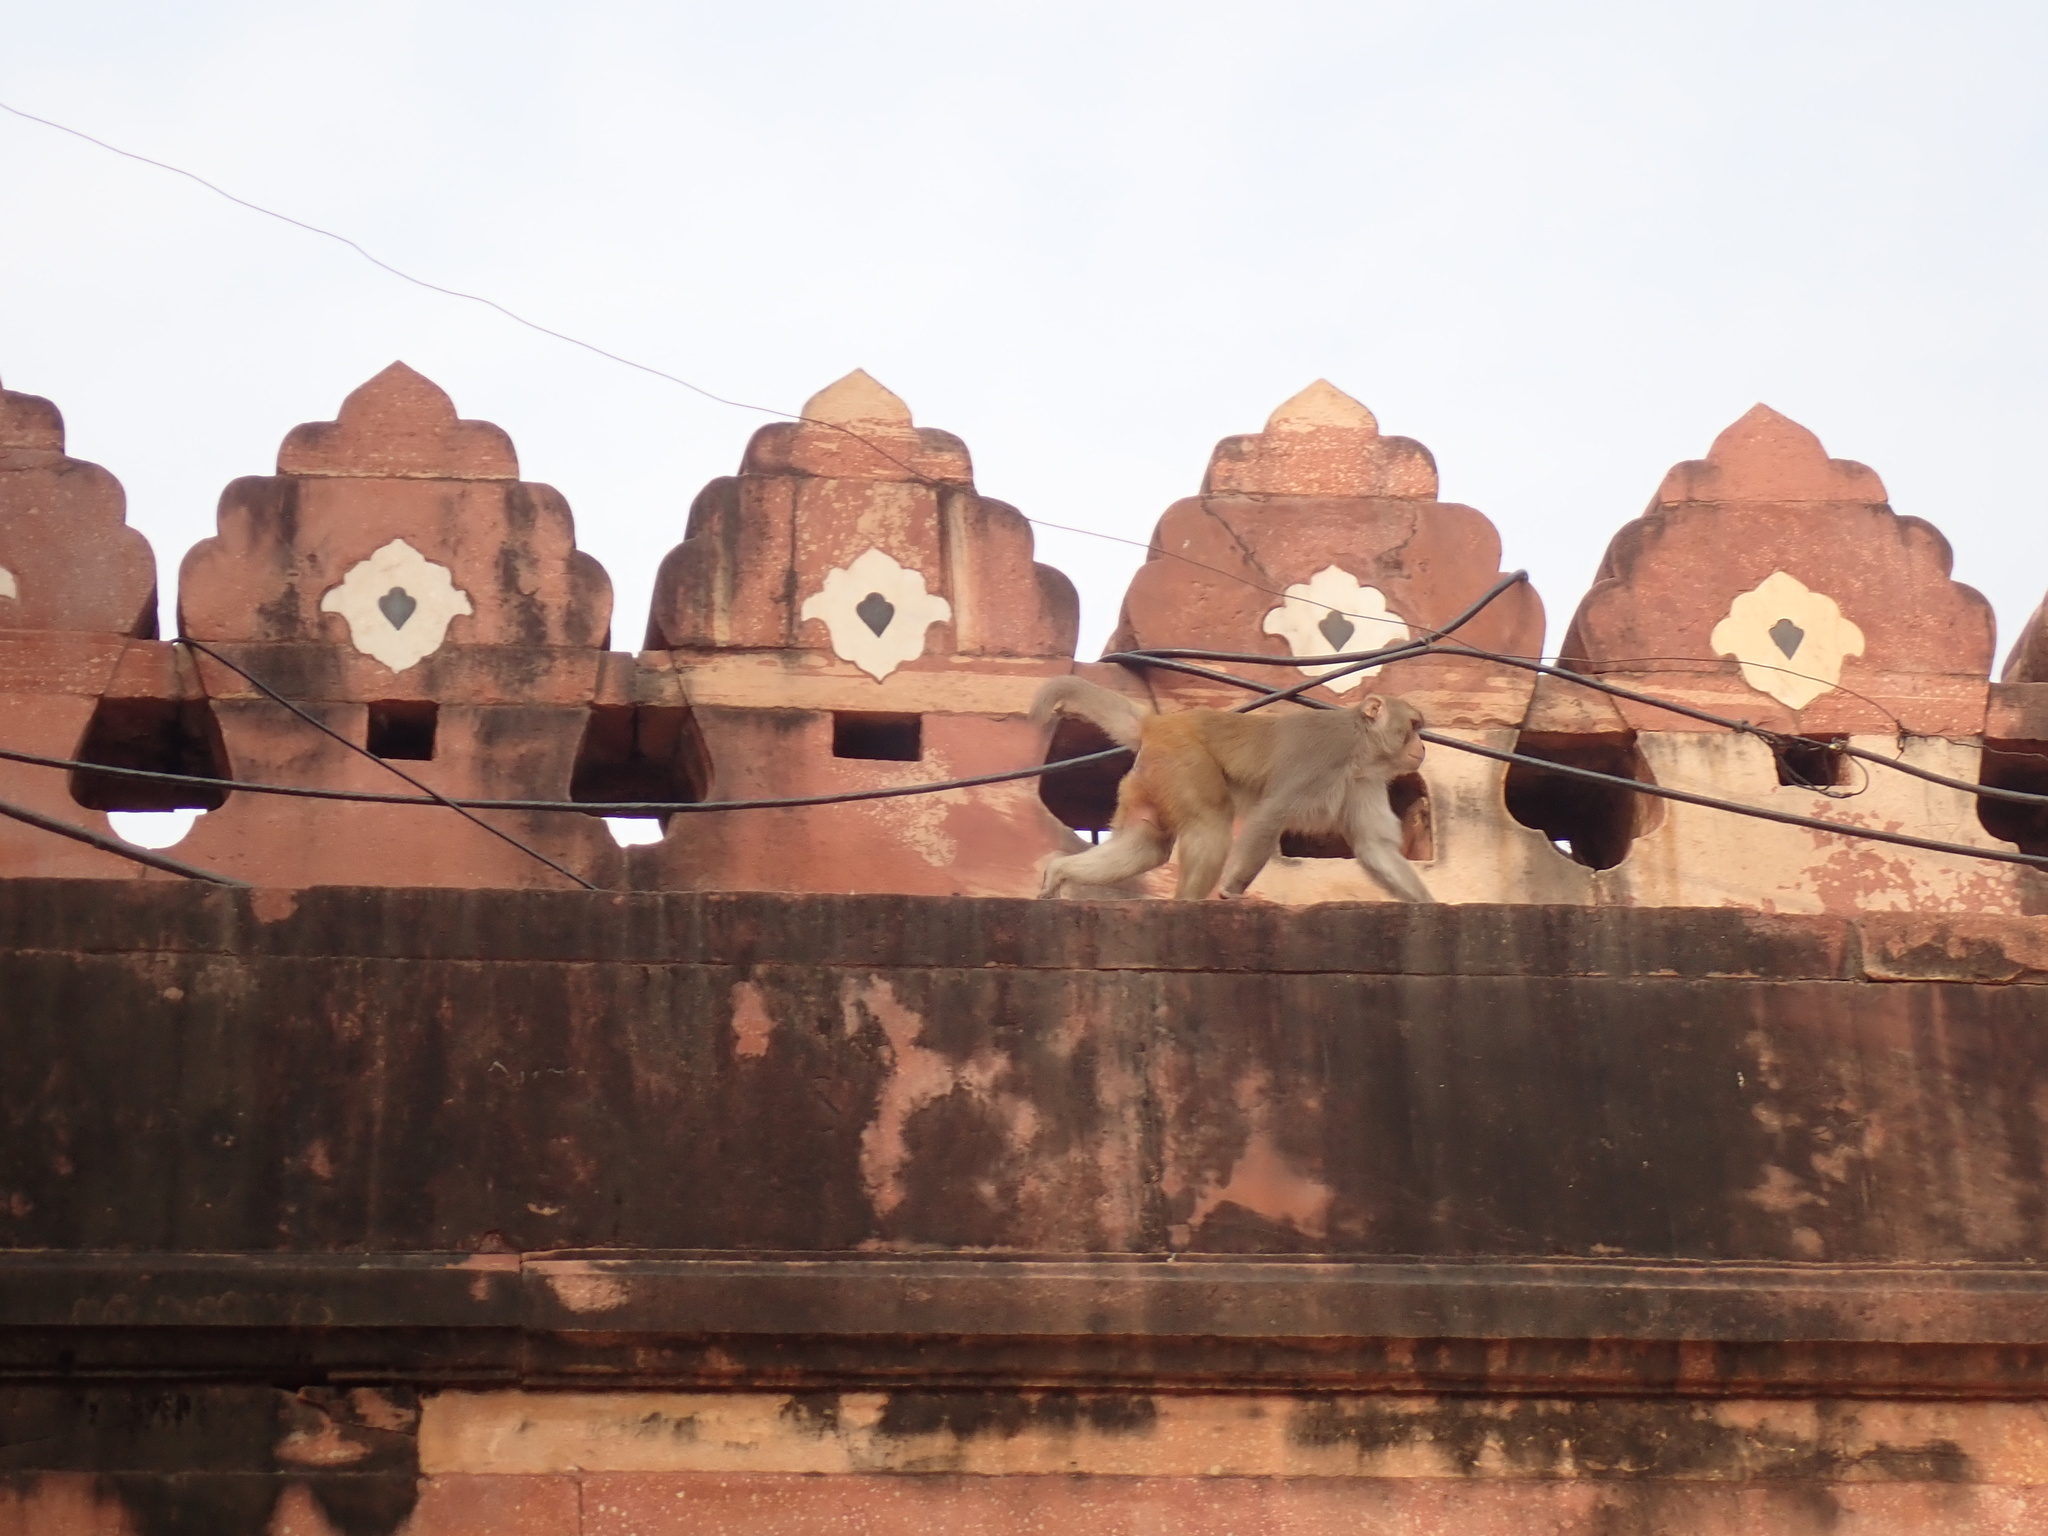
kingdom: Animalia
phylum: Chordata
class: Mammalia
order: Primates
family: Cercopithecidae
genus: Macaca
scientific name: Macaca mulatta
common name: Rhesus monkey
